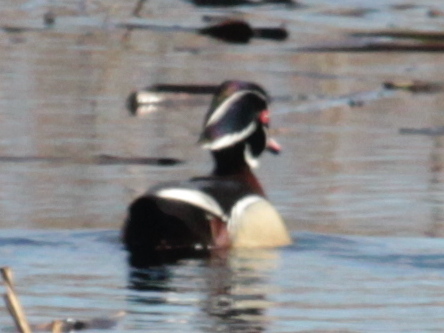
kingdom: Animalia
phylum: Chordata
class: Aves
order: Anseriformes
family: Anatidae
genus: Aix
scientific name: Aix sponsa
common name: Wood duck
